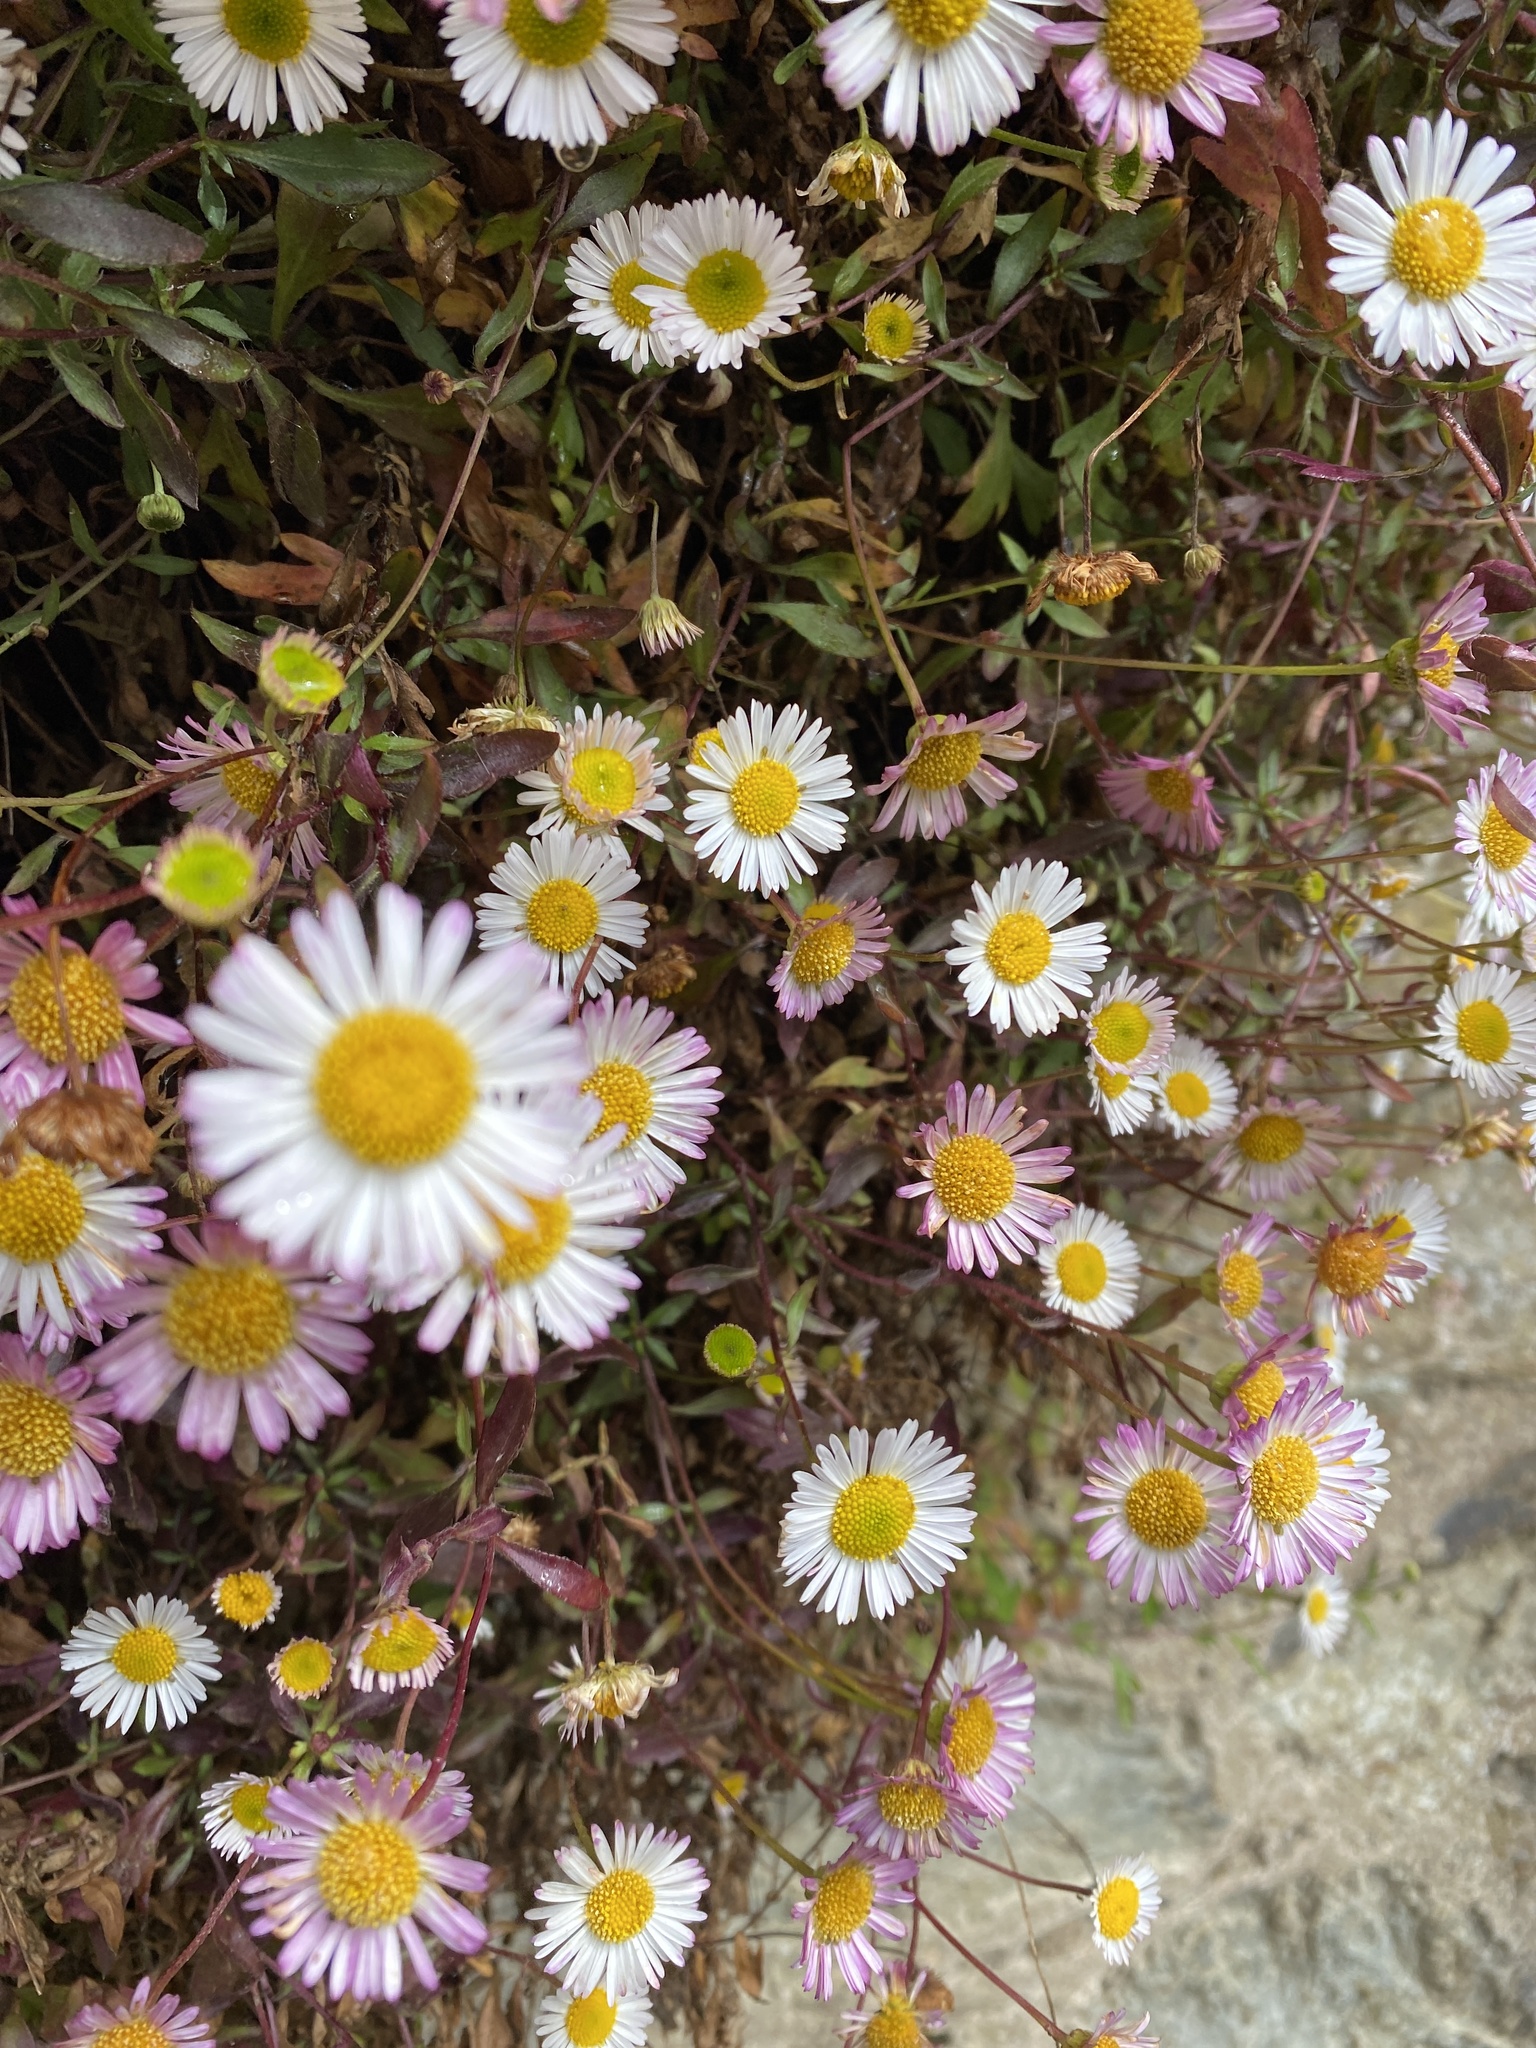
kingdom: Plantae
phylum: Tracheophyta
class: Magnoliopsida
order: Asterales
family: Asteraceae
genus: Erigeron
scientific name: Erigeron karvinskianus
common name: Mexican fleabane
